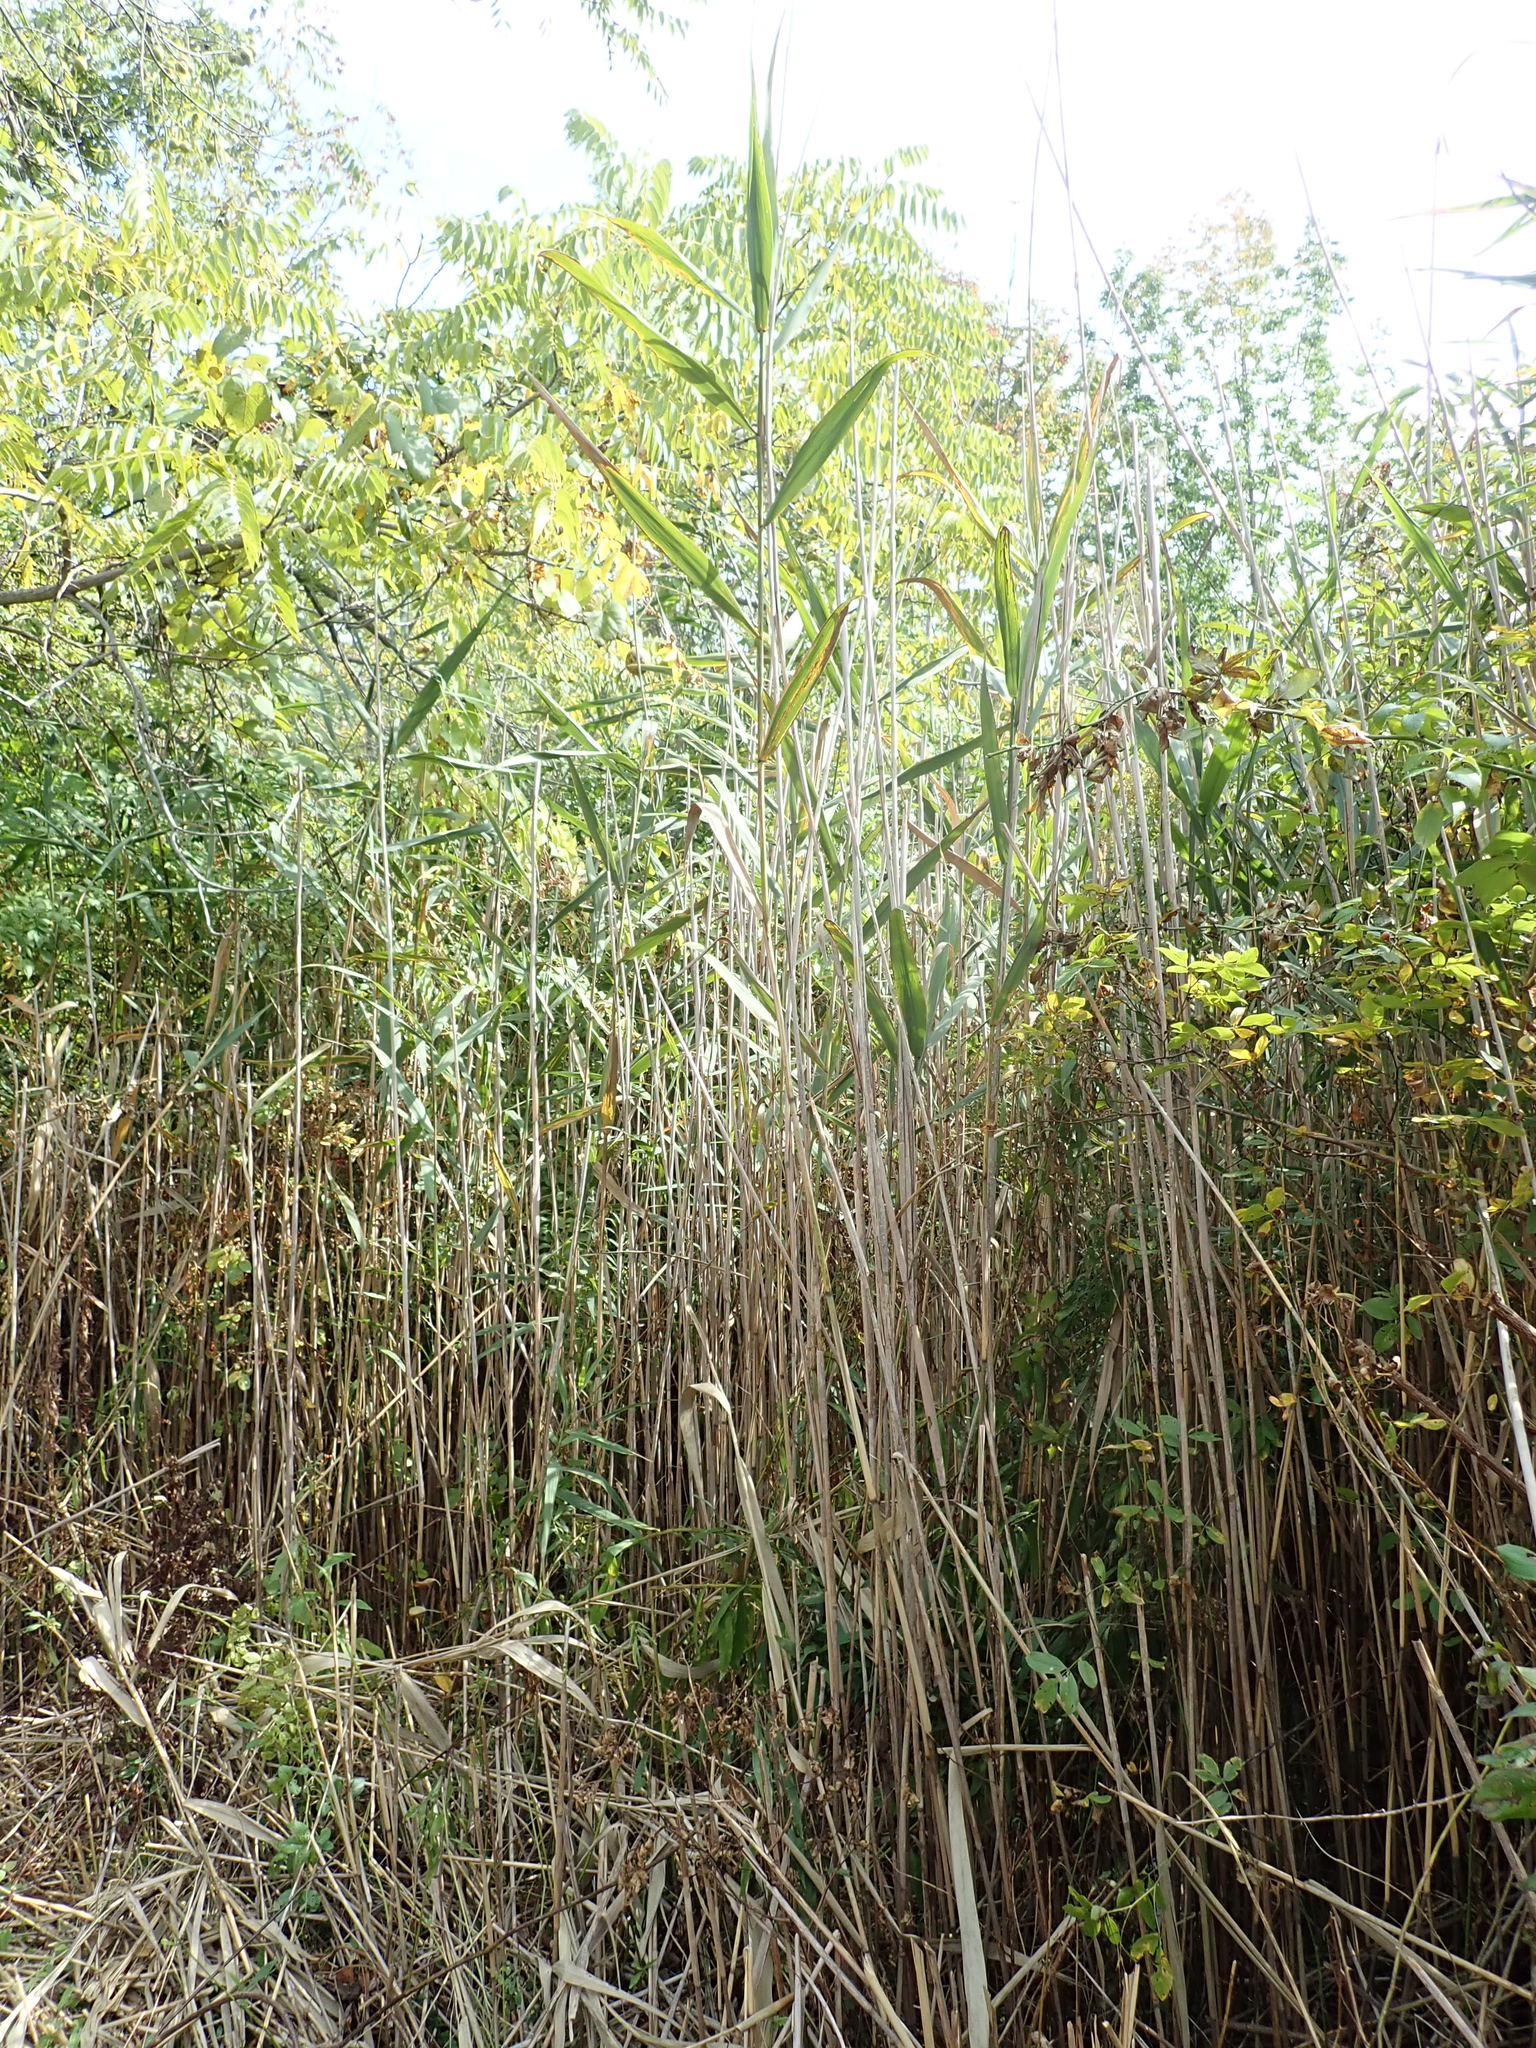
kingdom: Plantae
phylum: Tracheophyta
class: Liliopsida
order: Poales
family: Poaceae
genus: Phragmites
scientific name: Phragmites australis
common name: Common reed
